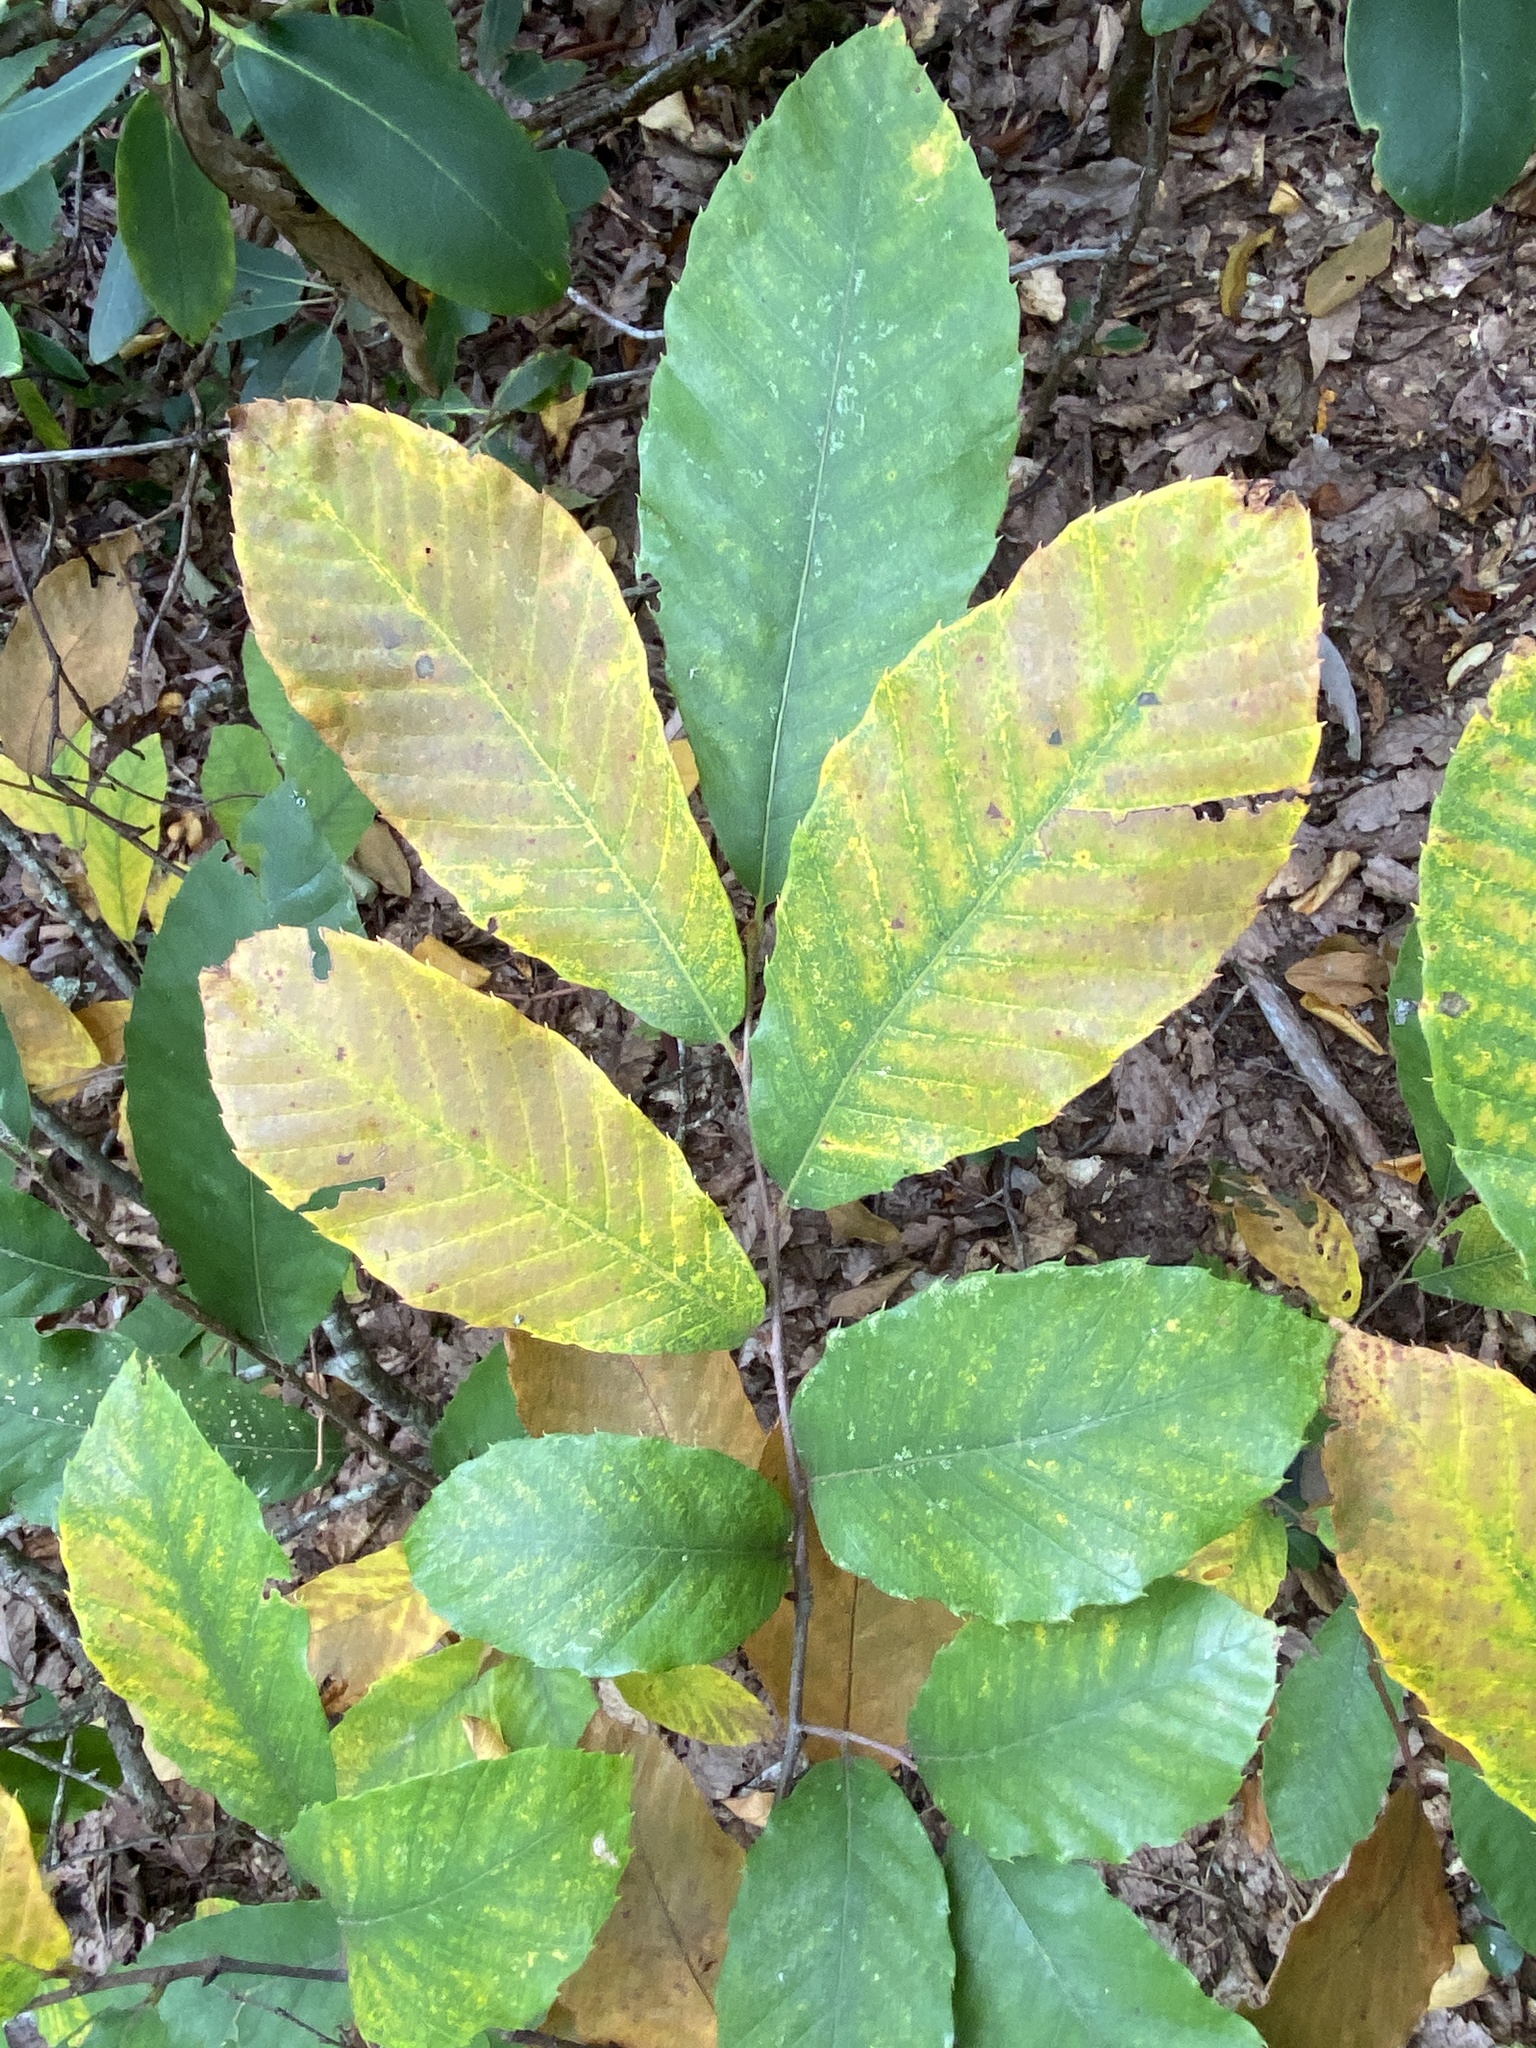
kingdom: Plantae
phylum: Tracheophyta
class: Magnoliopsida
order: Fagales
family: Fagaceae
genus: Castanea
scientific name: Castanea pumila
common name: Chinkapin
